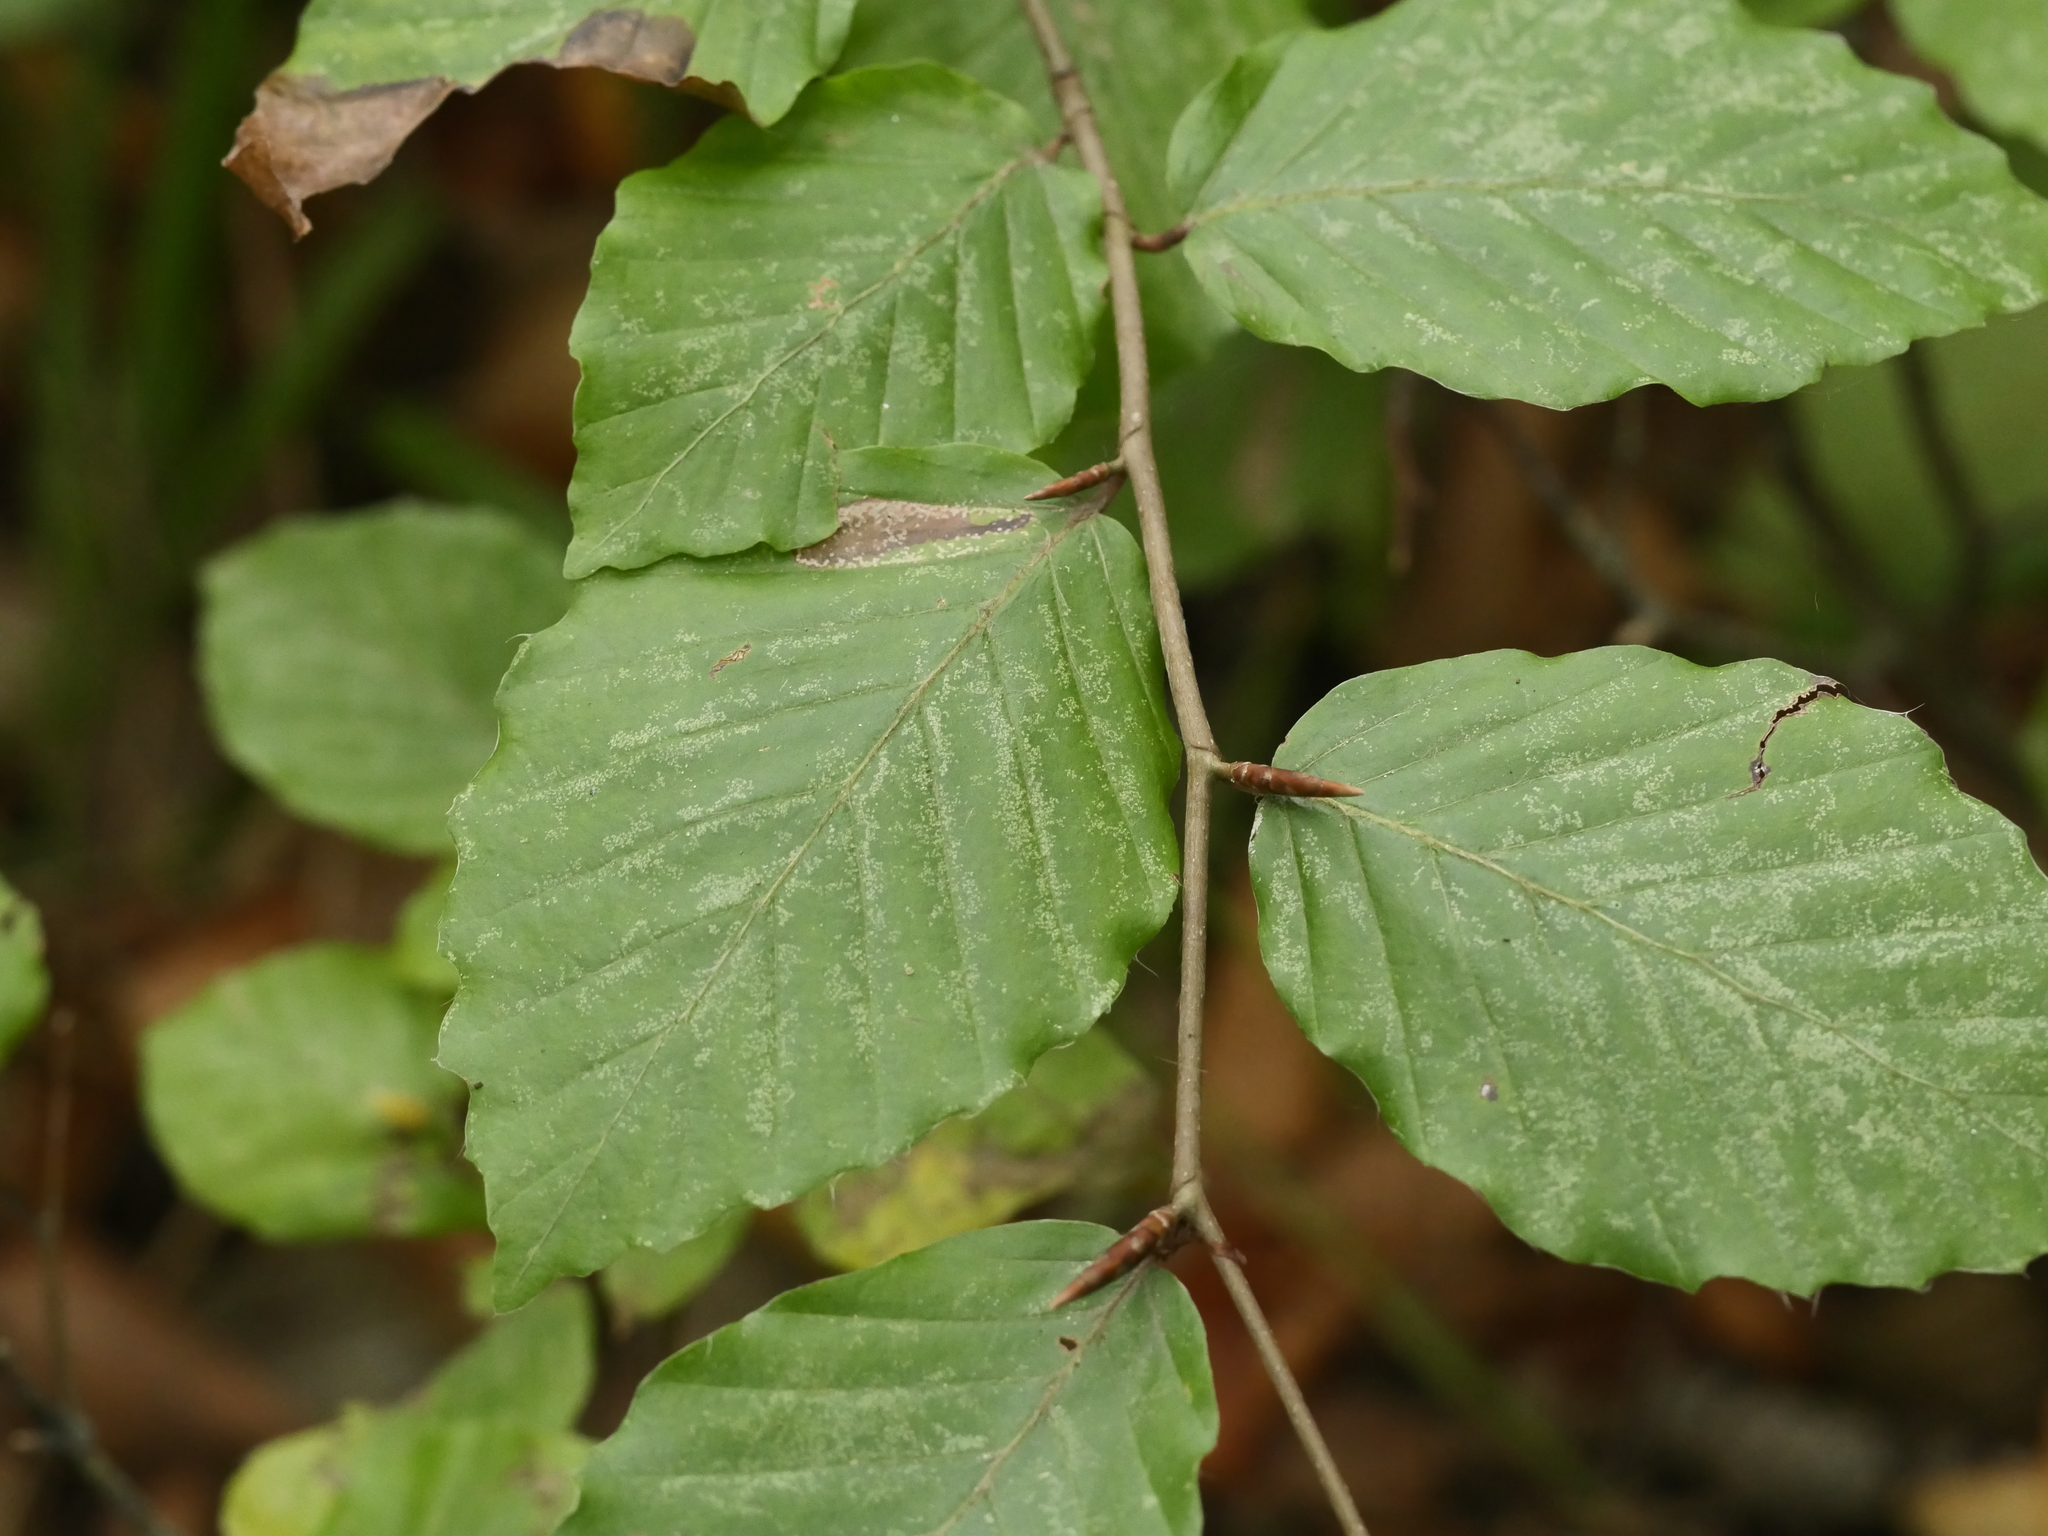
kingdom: Plantae
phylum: Tracheophyta
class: Magnoliopsida
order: Fagales
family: Fagaceae
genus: Fagus
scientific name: Fagus sylvatica
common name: Beech
